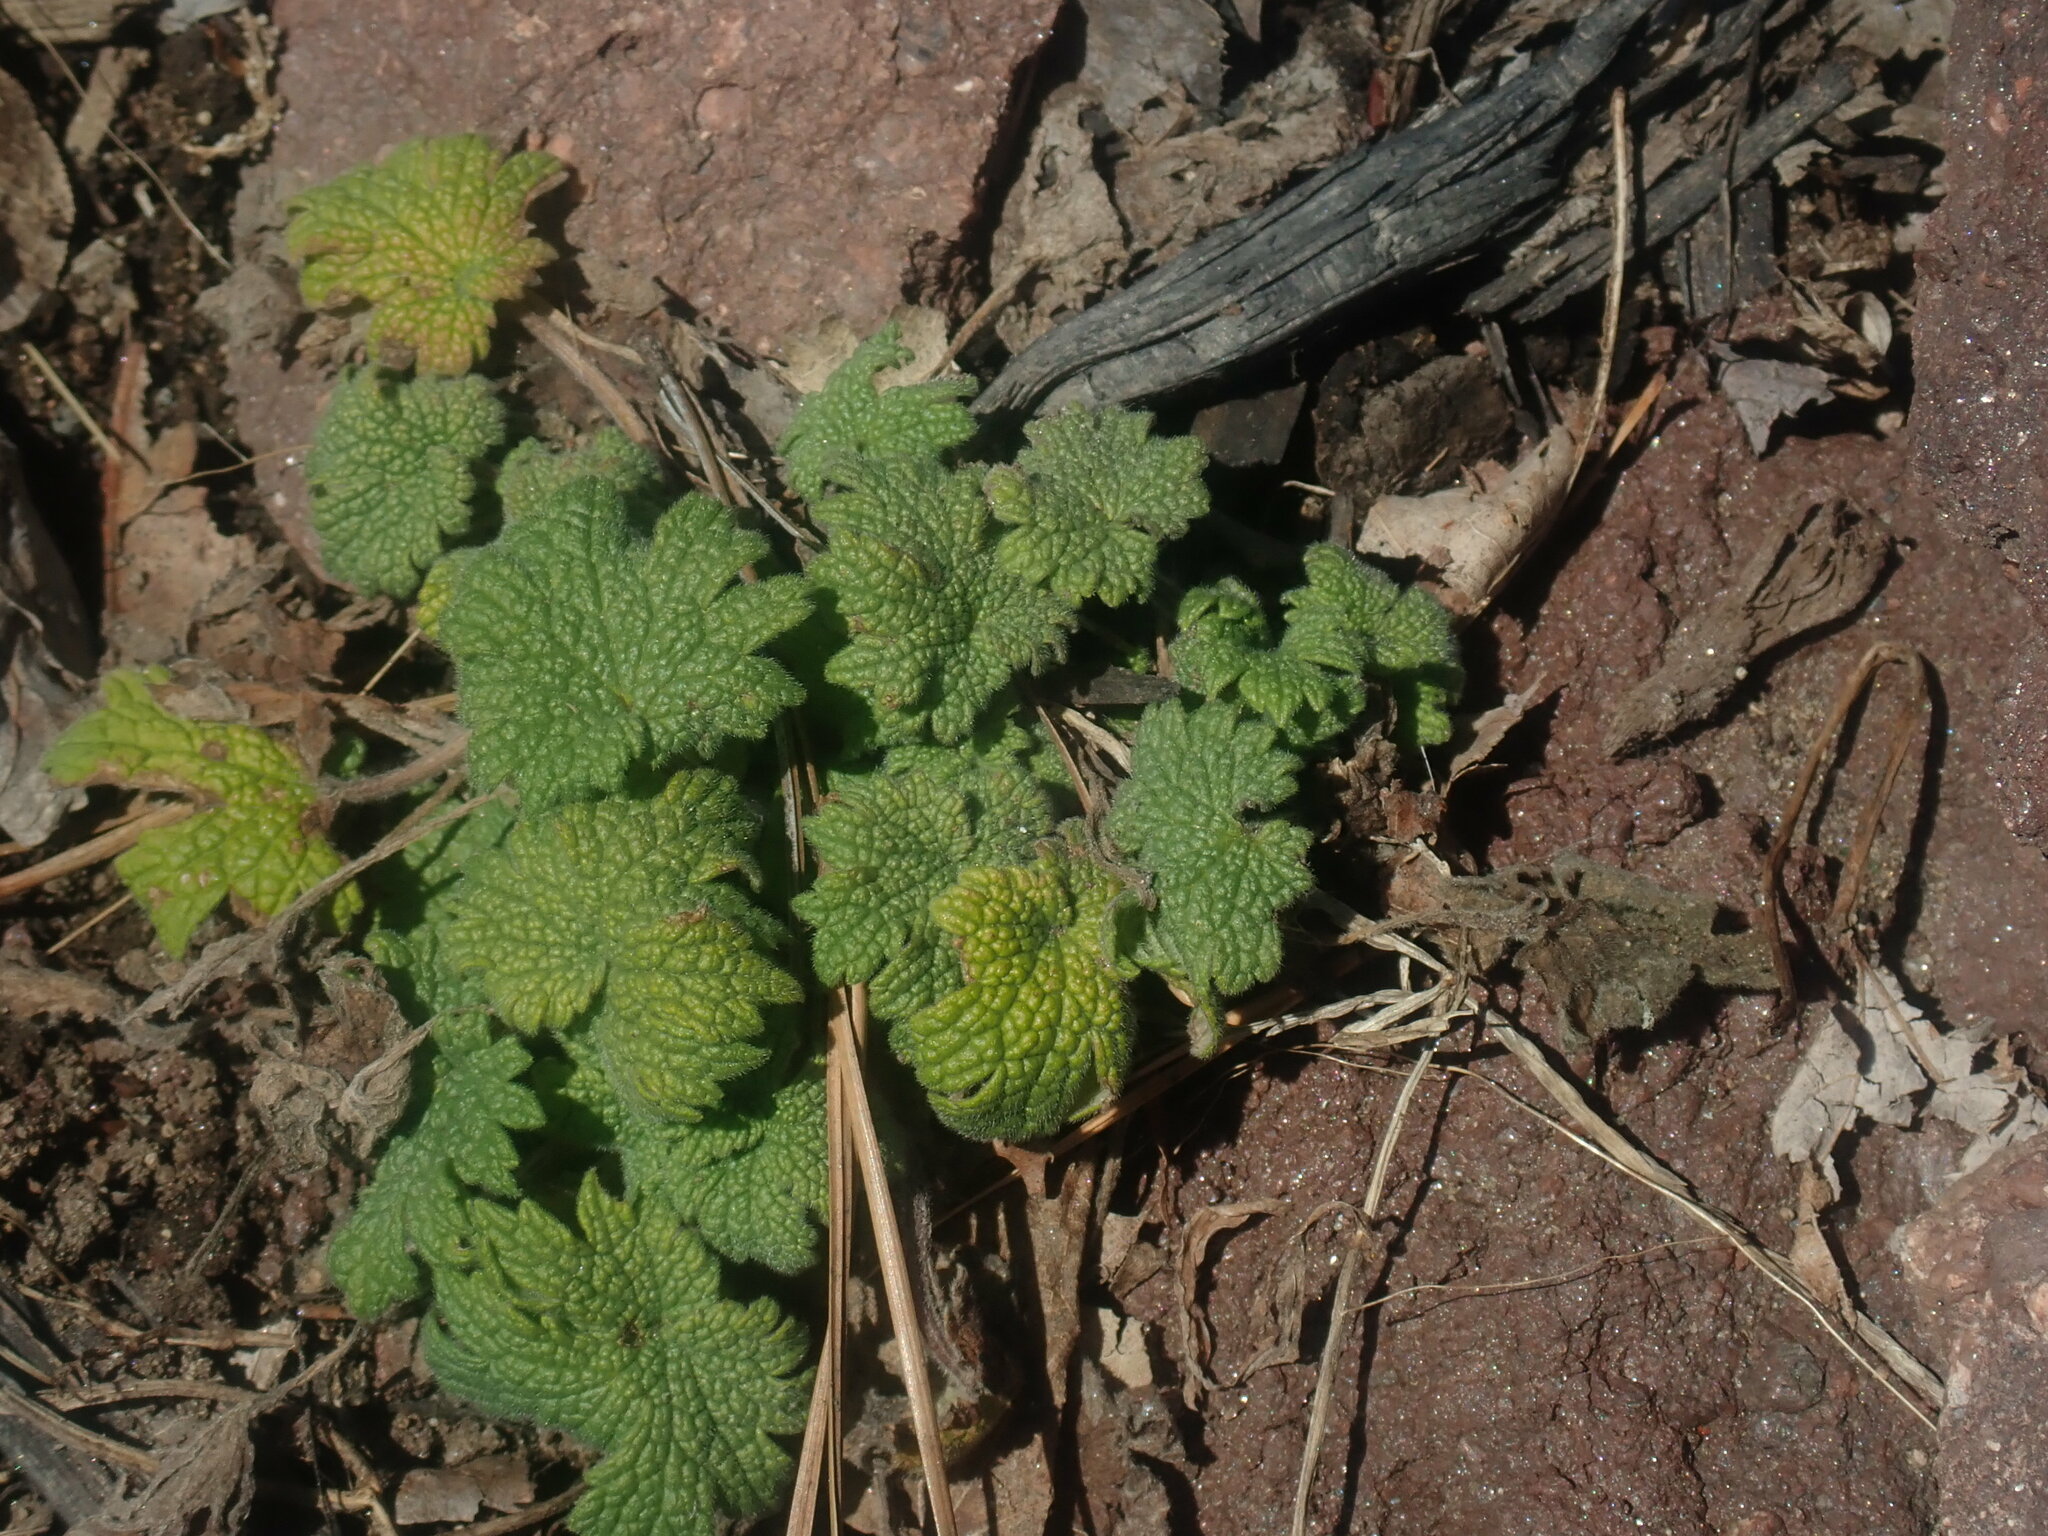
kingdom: Plantae
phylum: Tracheophyta
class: Magnoliopsida
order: Lamiales
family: Lamiaceae
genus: Leonurus
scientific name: Leonurus cardiaca
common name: Motherwort
